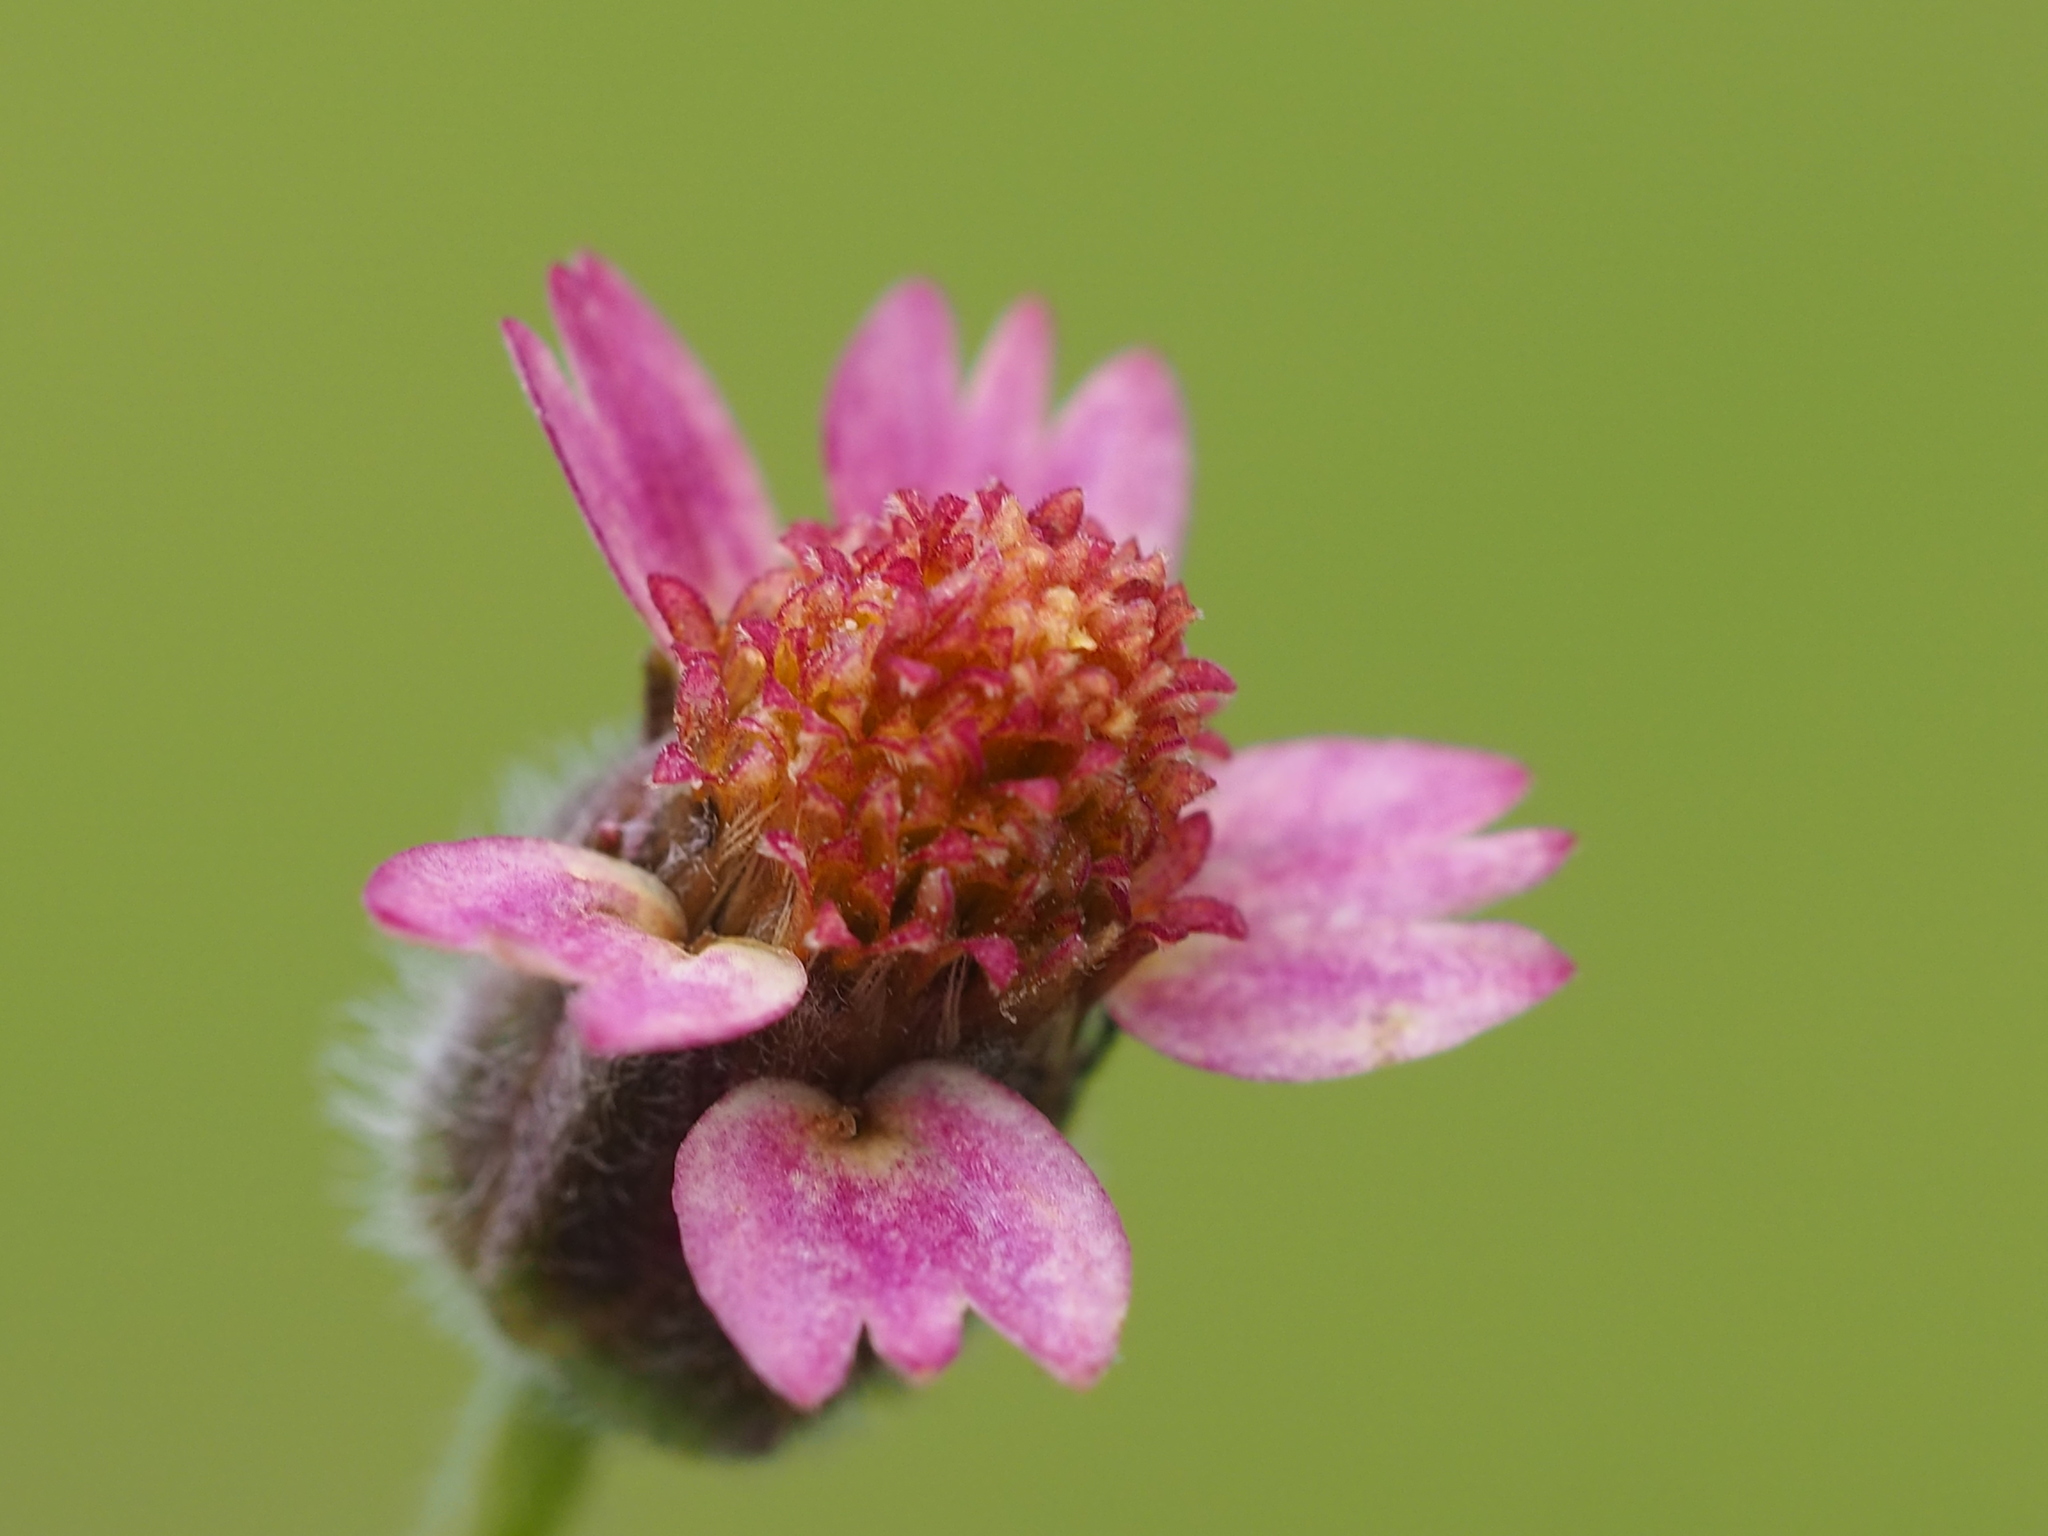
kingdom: Plantae
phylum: Tracheophyta
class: Magnoliopsida
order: Asterales
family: Asteraceae
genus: Tridax
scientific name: Tridax procumbens
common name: Coatbuttons
